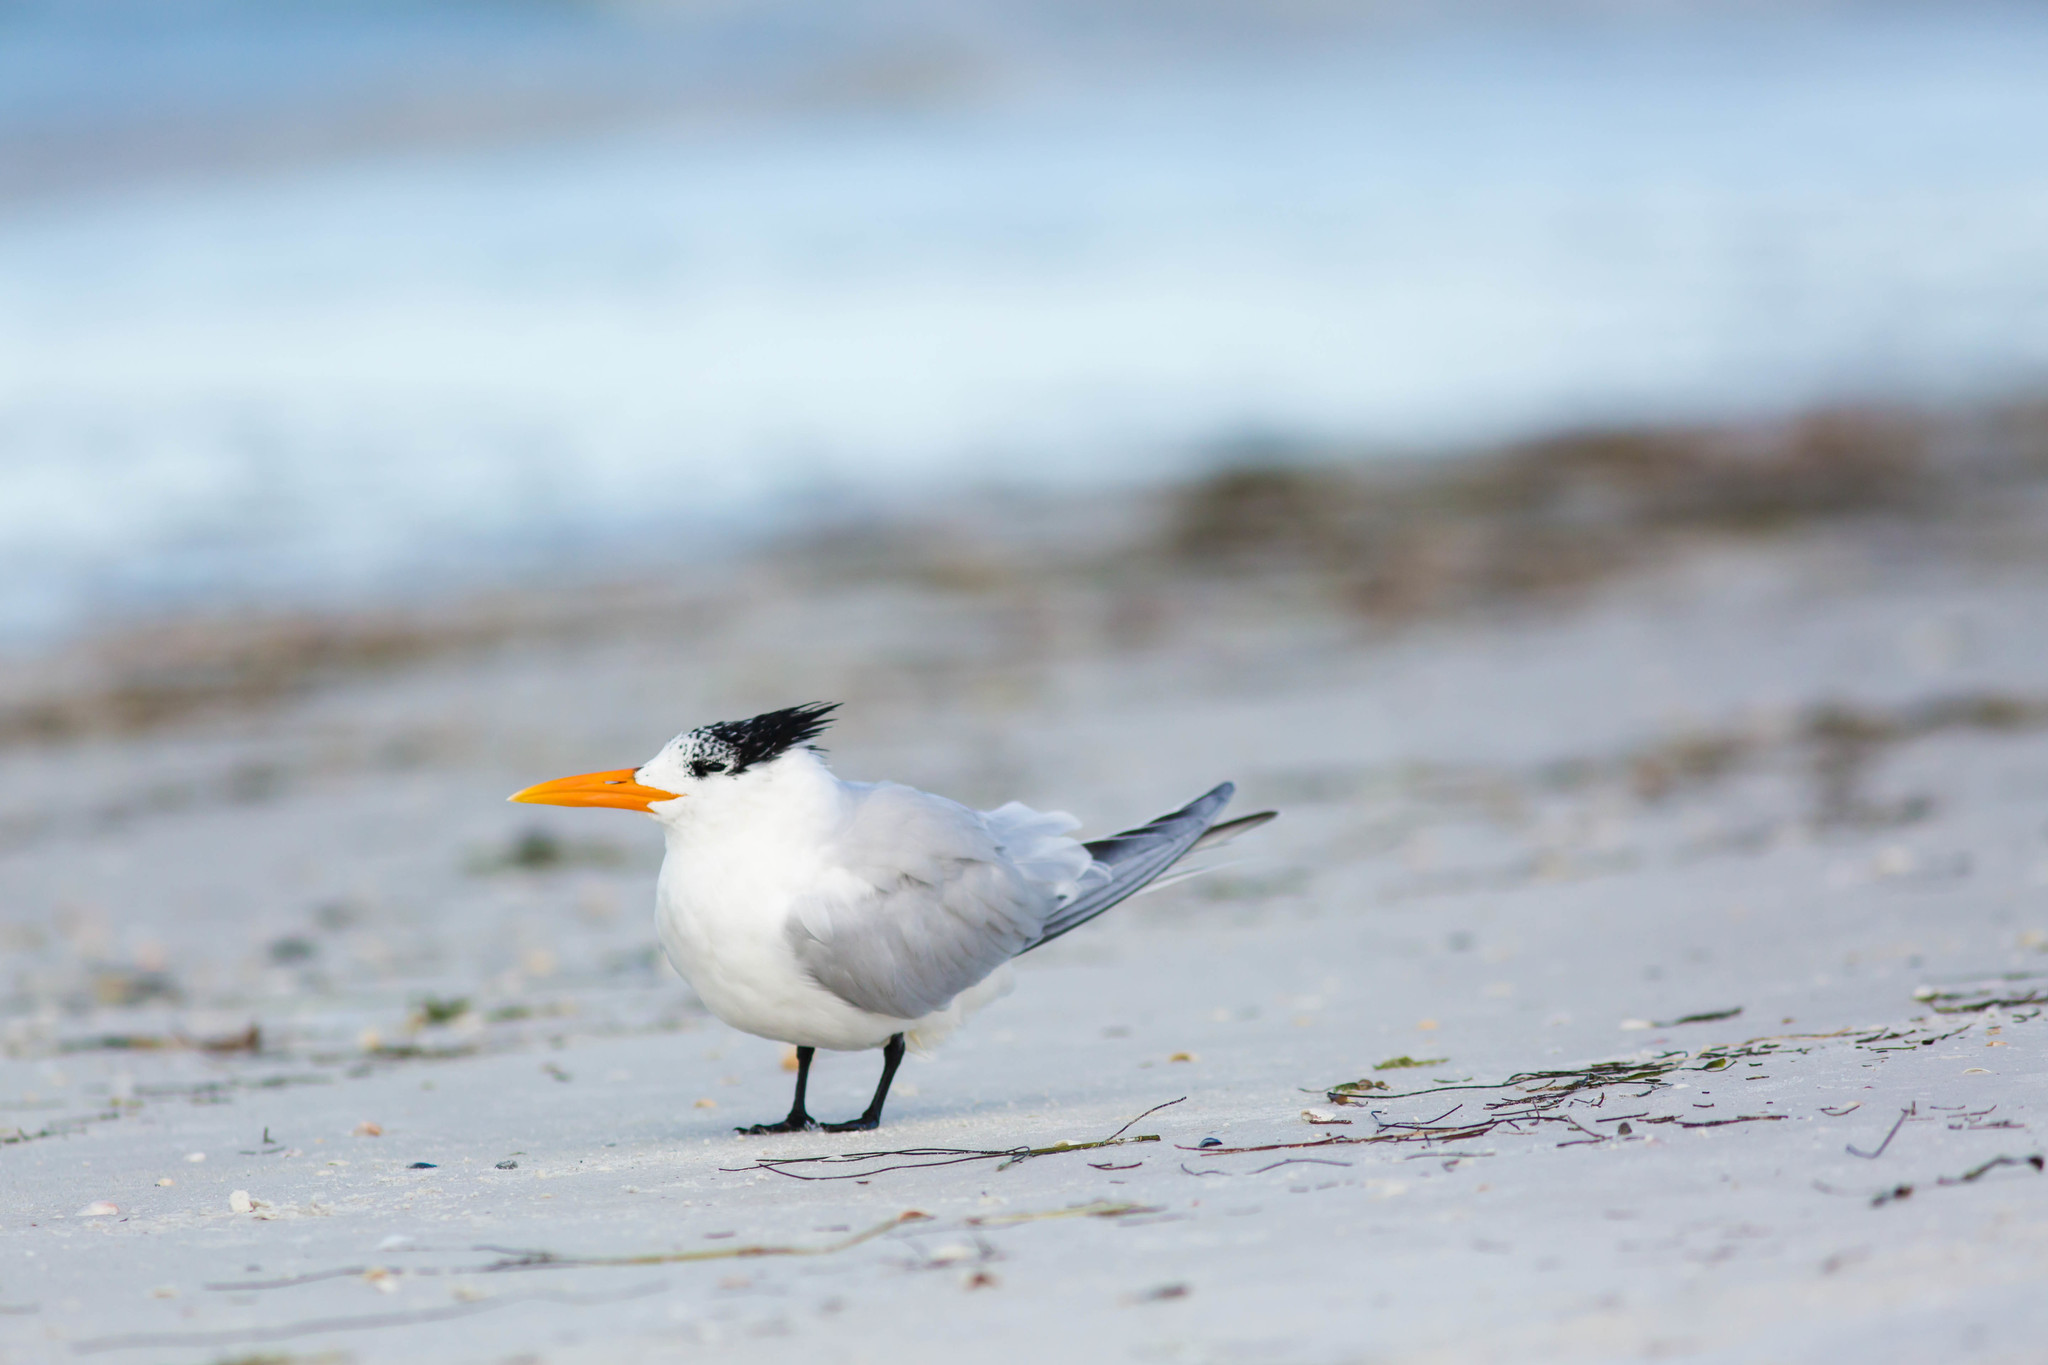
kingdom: Animalia
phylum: Chordata
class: Aves
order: Charadriiformes
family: Laridae
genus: Thalasseus
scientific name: Thalasseus maximus
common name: Royal tern
